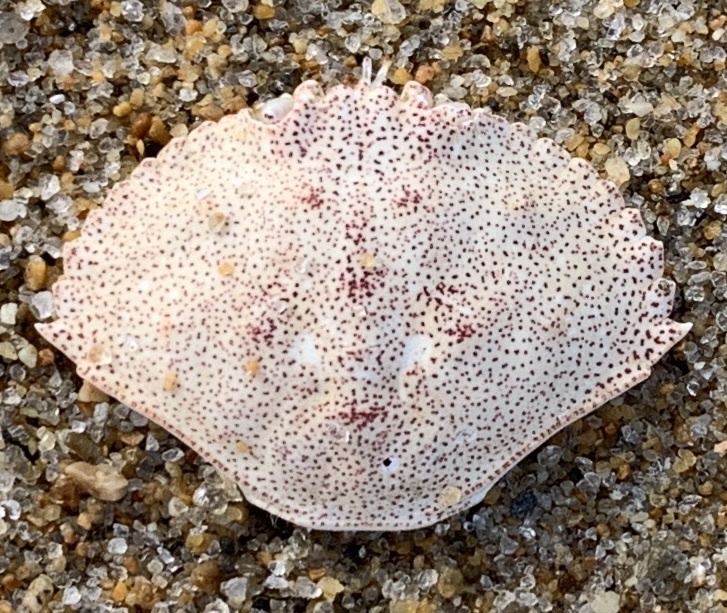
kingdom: Animalia
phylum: Arthropoda
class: Malacostraca
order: Decapoda
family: Cancridae
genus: Cancer
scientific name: Cancer irroratus
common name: Atlantic rock crab
